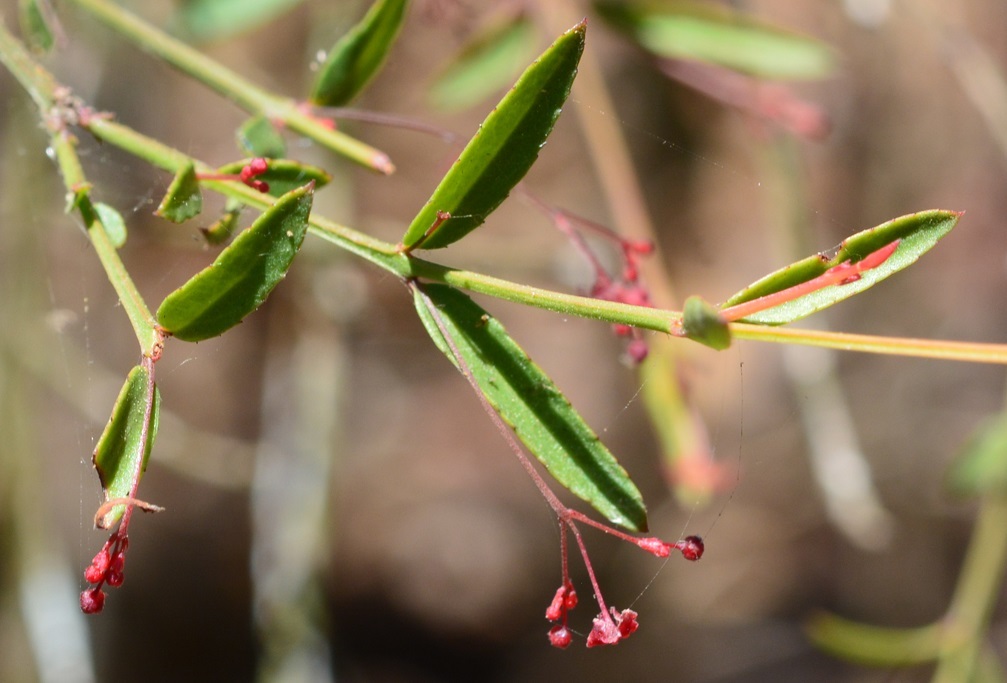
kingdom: Plantae
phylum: Tracheophyta
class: Magnoliopsida
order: Celastrales
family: Celastraceae
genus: Crossopetalum
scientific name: Crossopetalum uragoga
